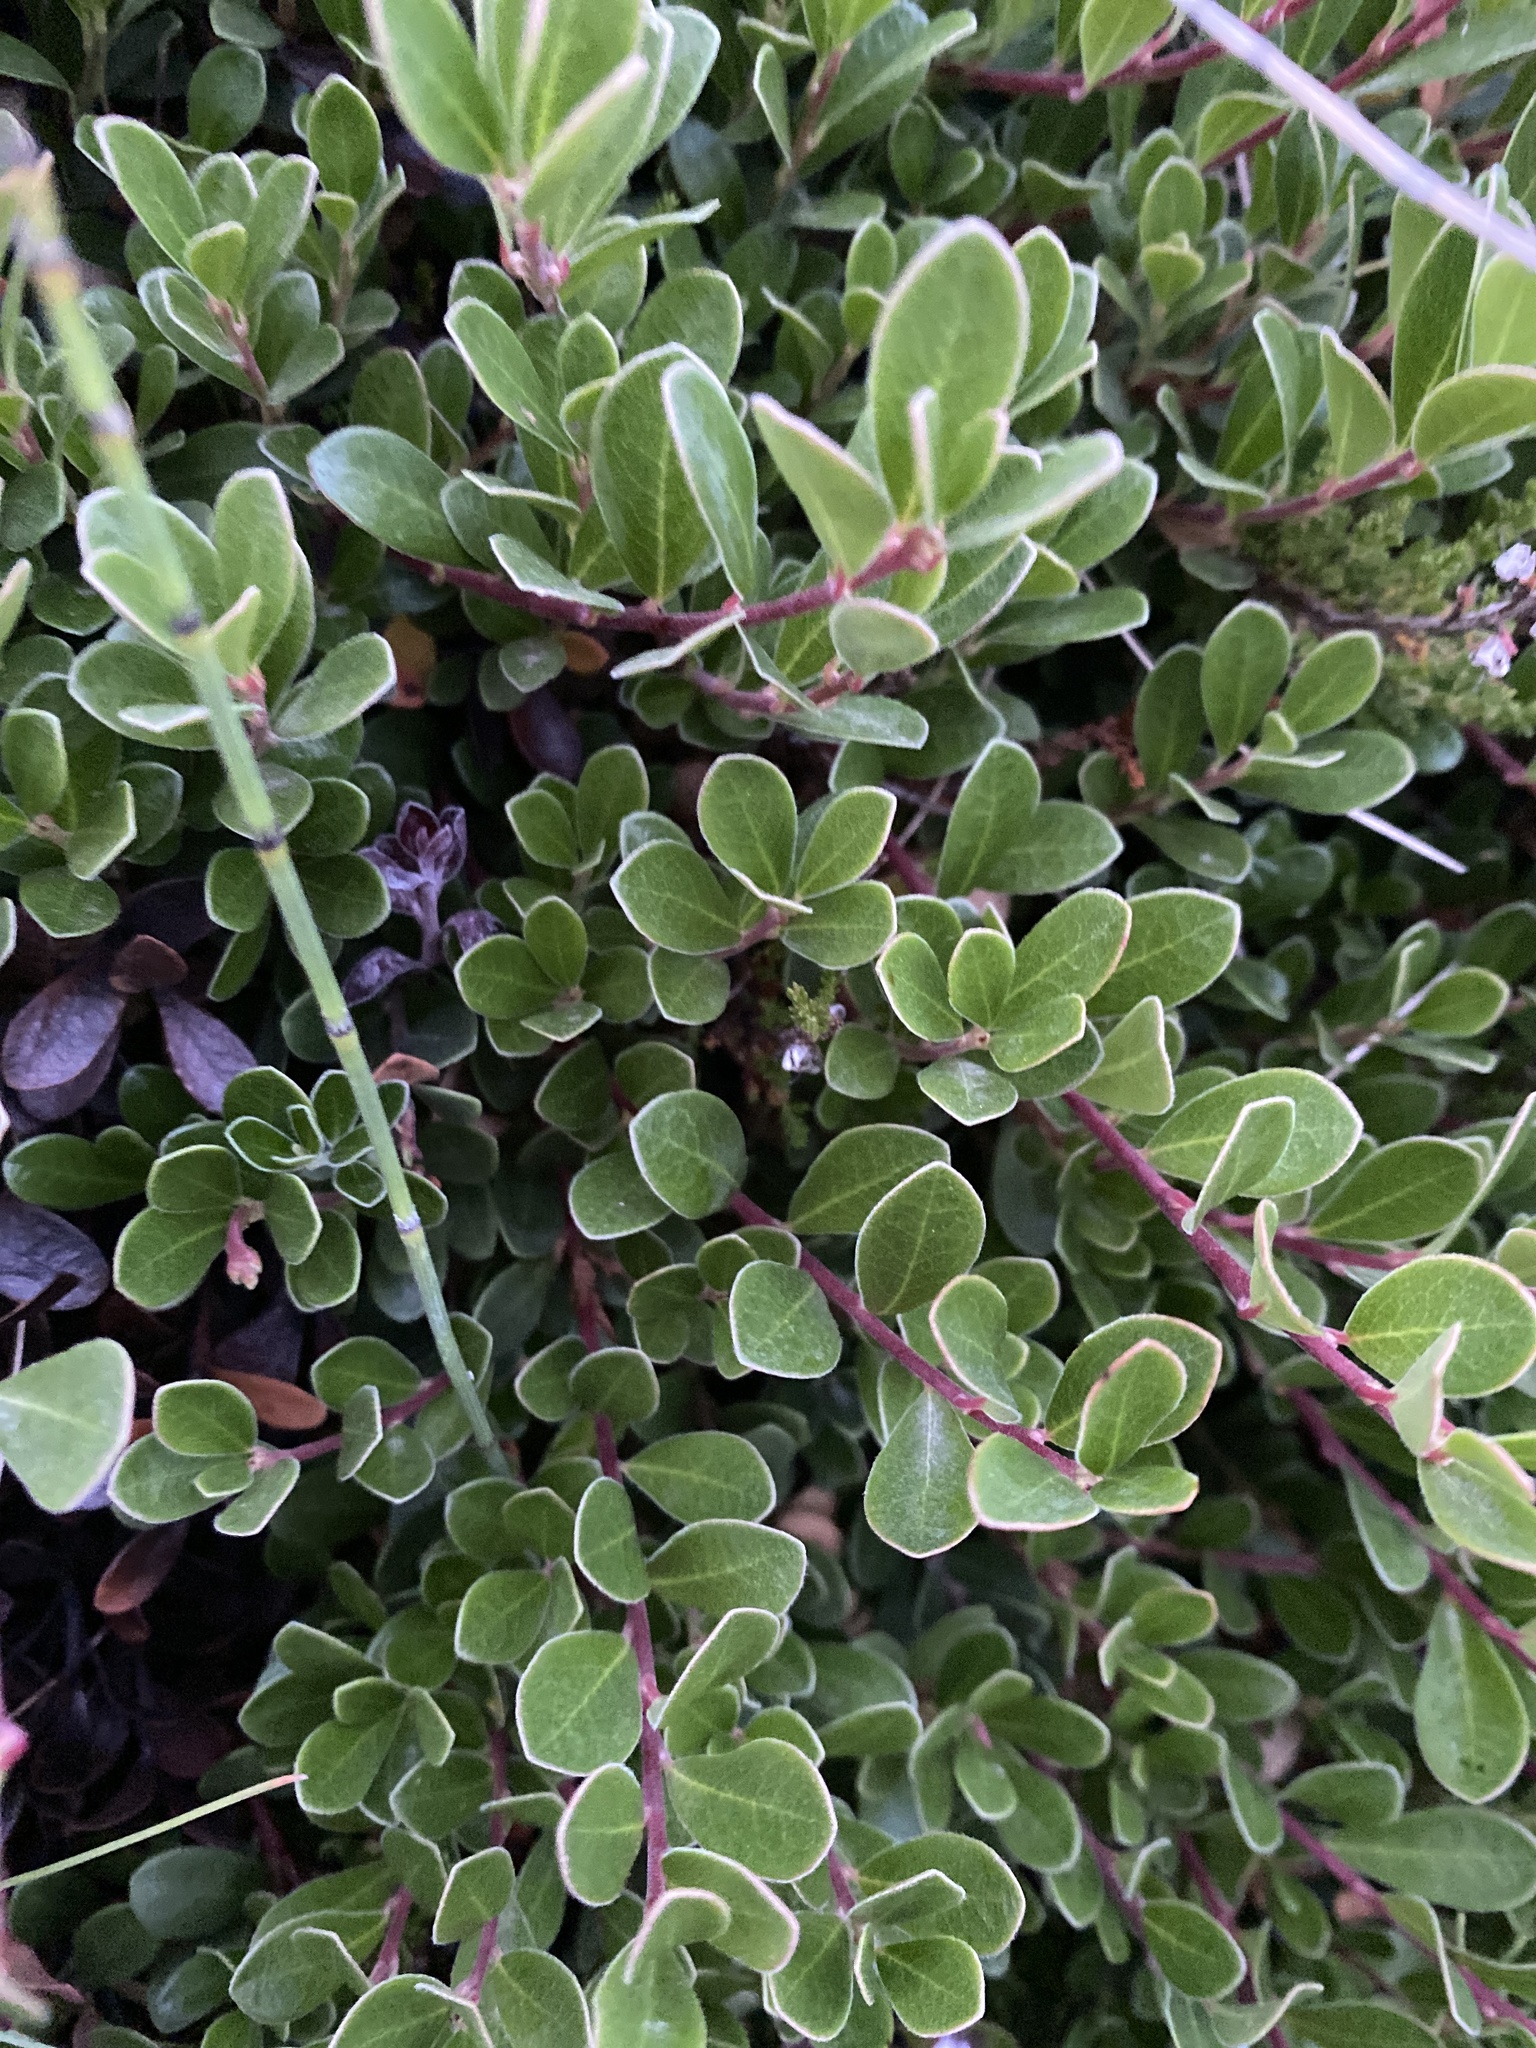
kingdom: Plantae
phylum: Tracheophyta
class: Magnoliopsida
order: Ericales
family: Ericaceae
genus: Arctostaphylos
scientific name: Arctostaphylos uva-ursi
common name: Bearberry
